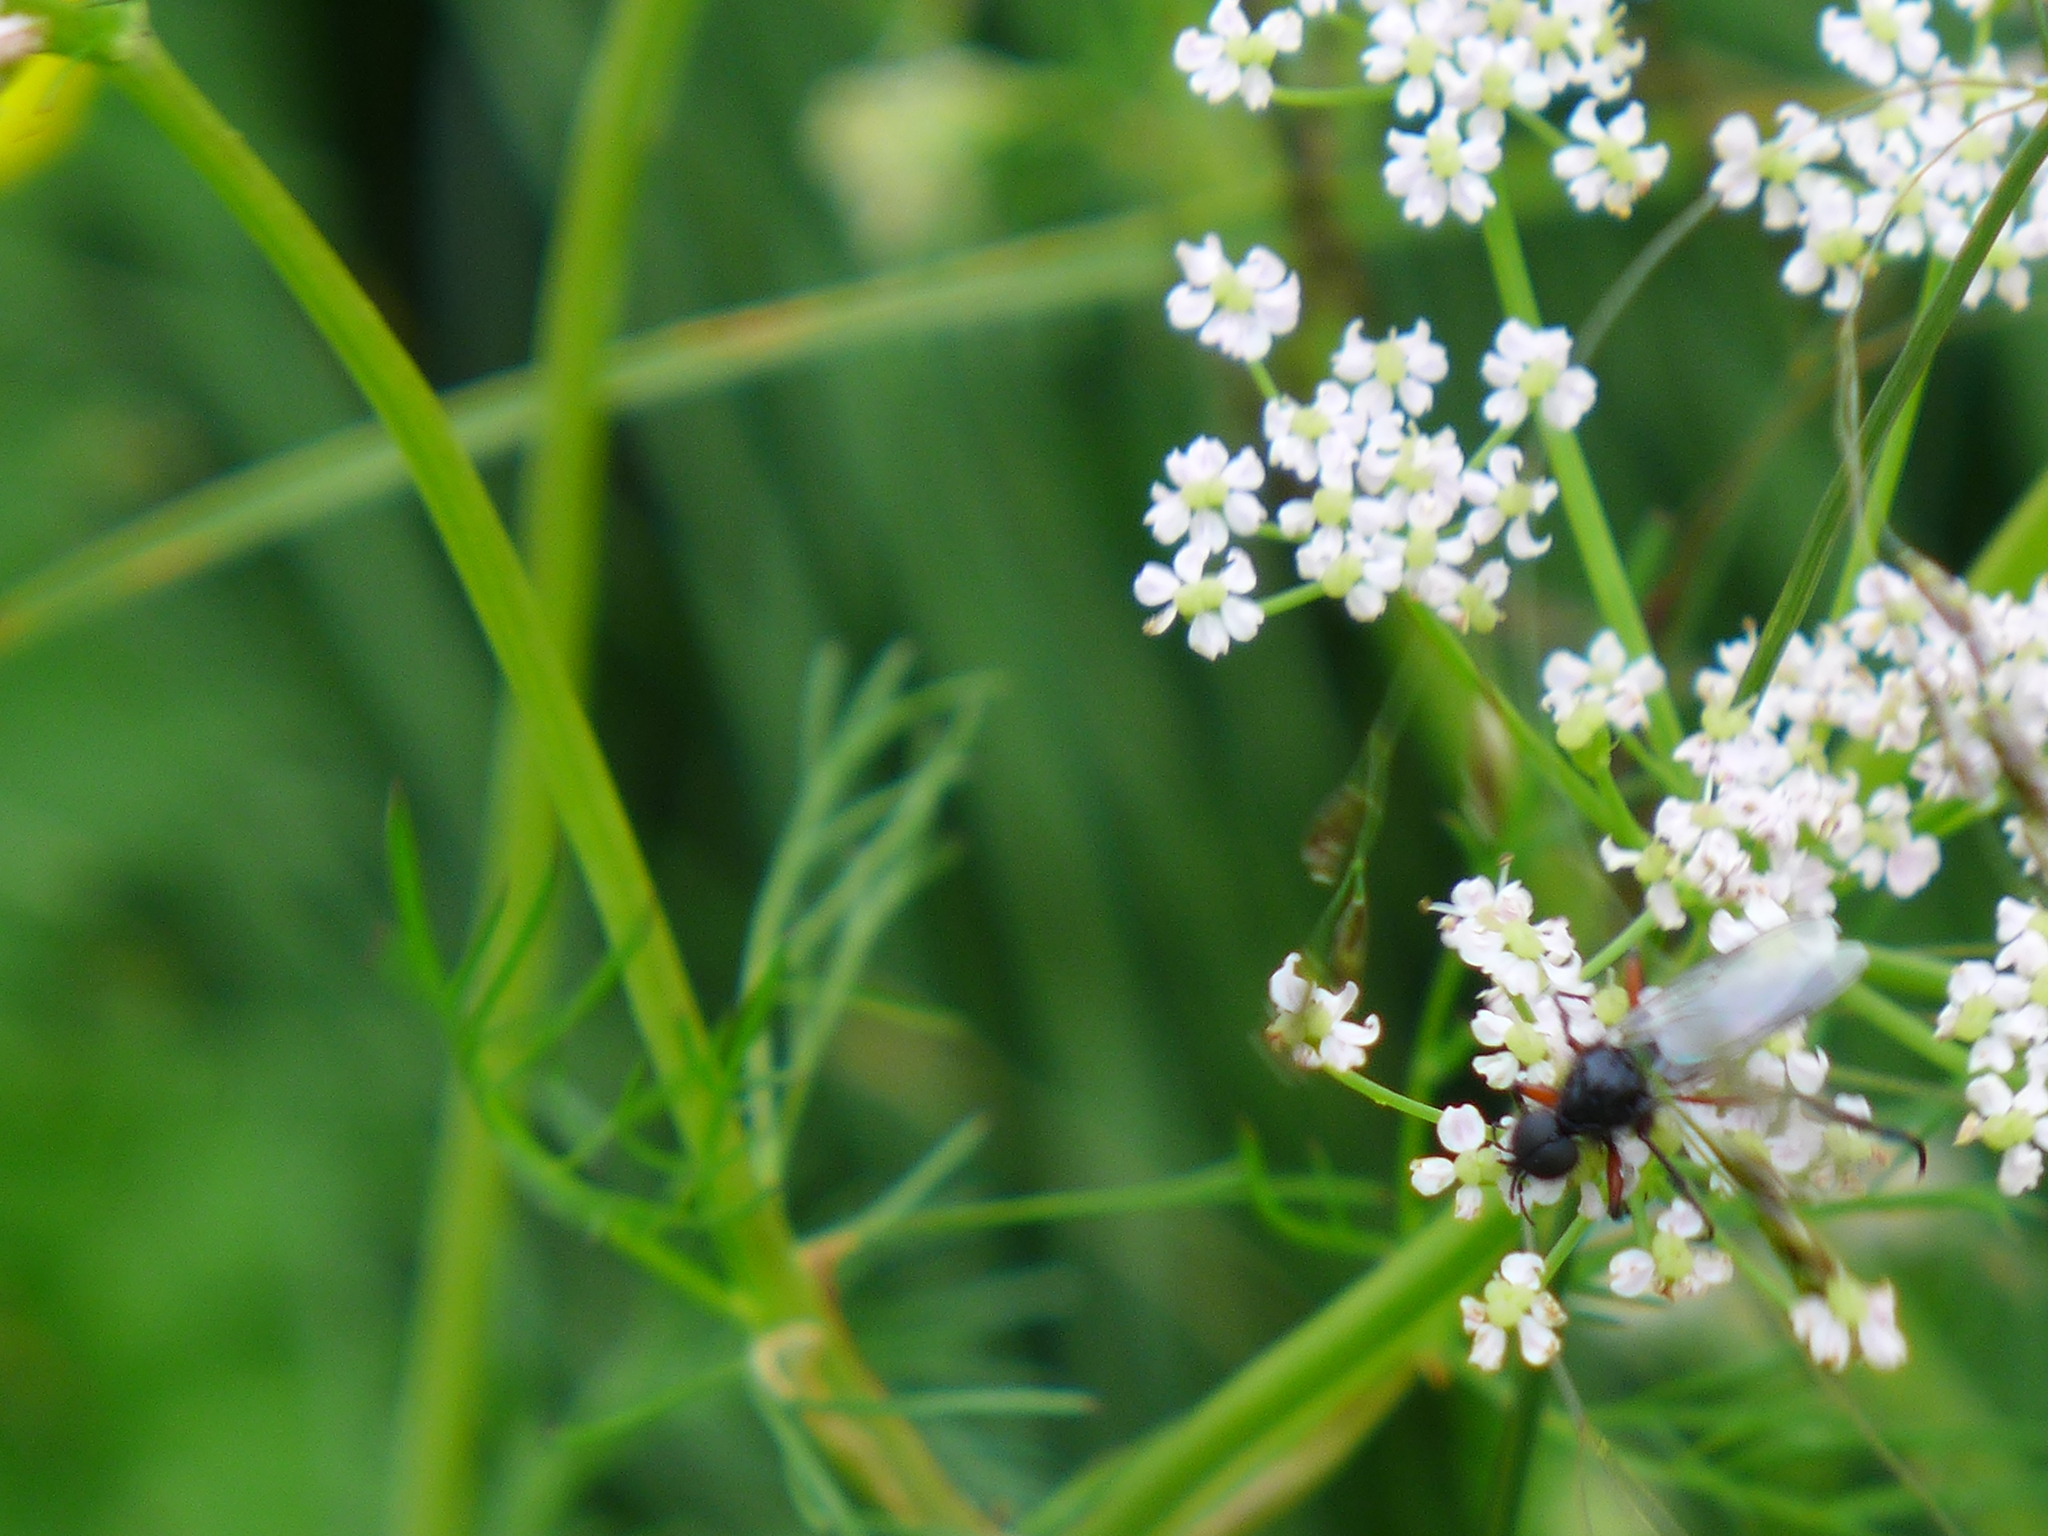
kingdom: Plantae
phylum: Tracheophyta
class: Magnoliopsida
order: Apiales
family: Apiaceae
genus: Carum
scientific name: Carum carvi
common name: Caraway
